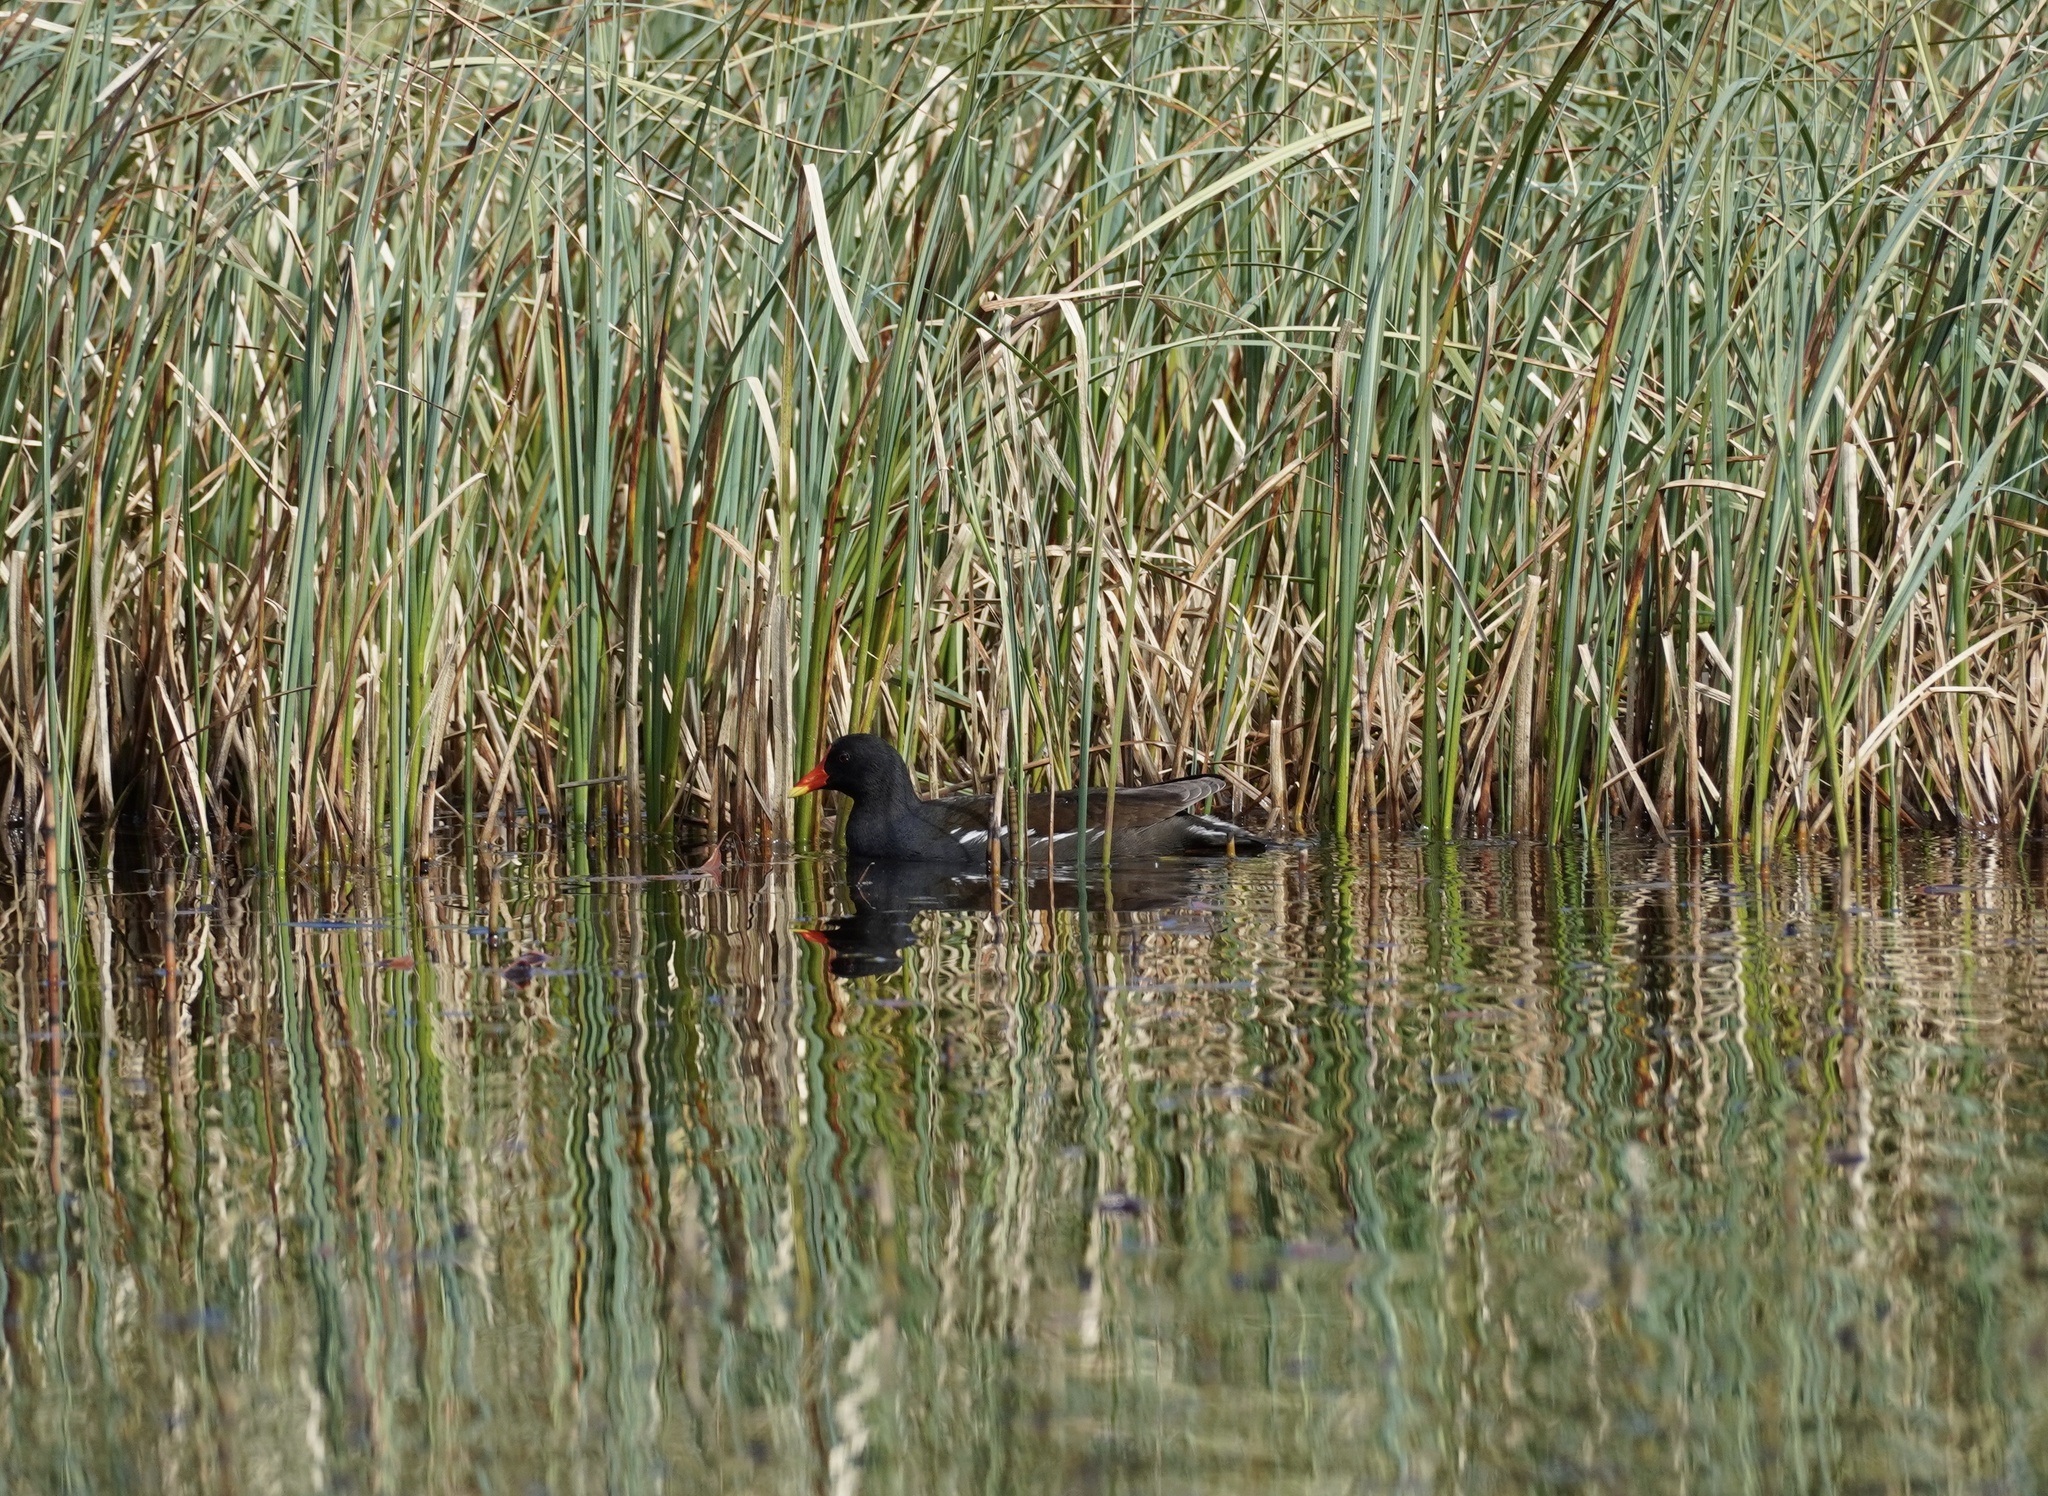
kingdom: Animalia
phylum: Chordata
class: Aves
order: Gruiformes
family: Rallidae
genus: Gallinula
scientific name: Gallinula chloropus
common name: Common moorhen
